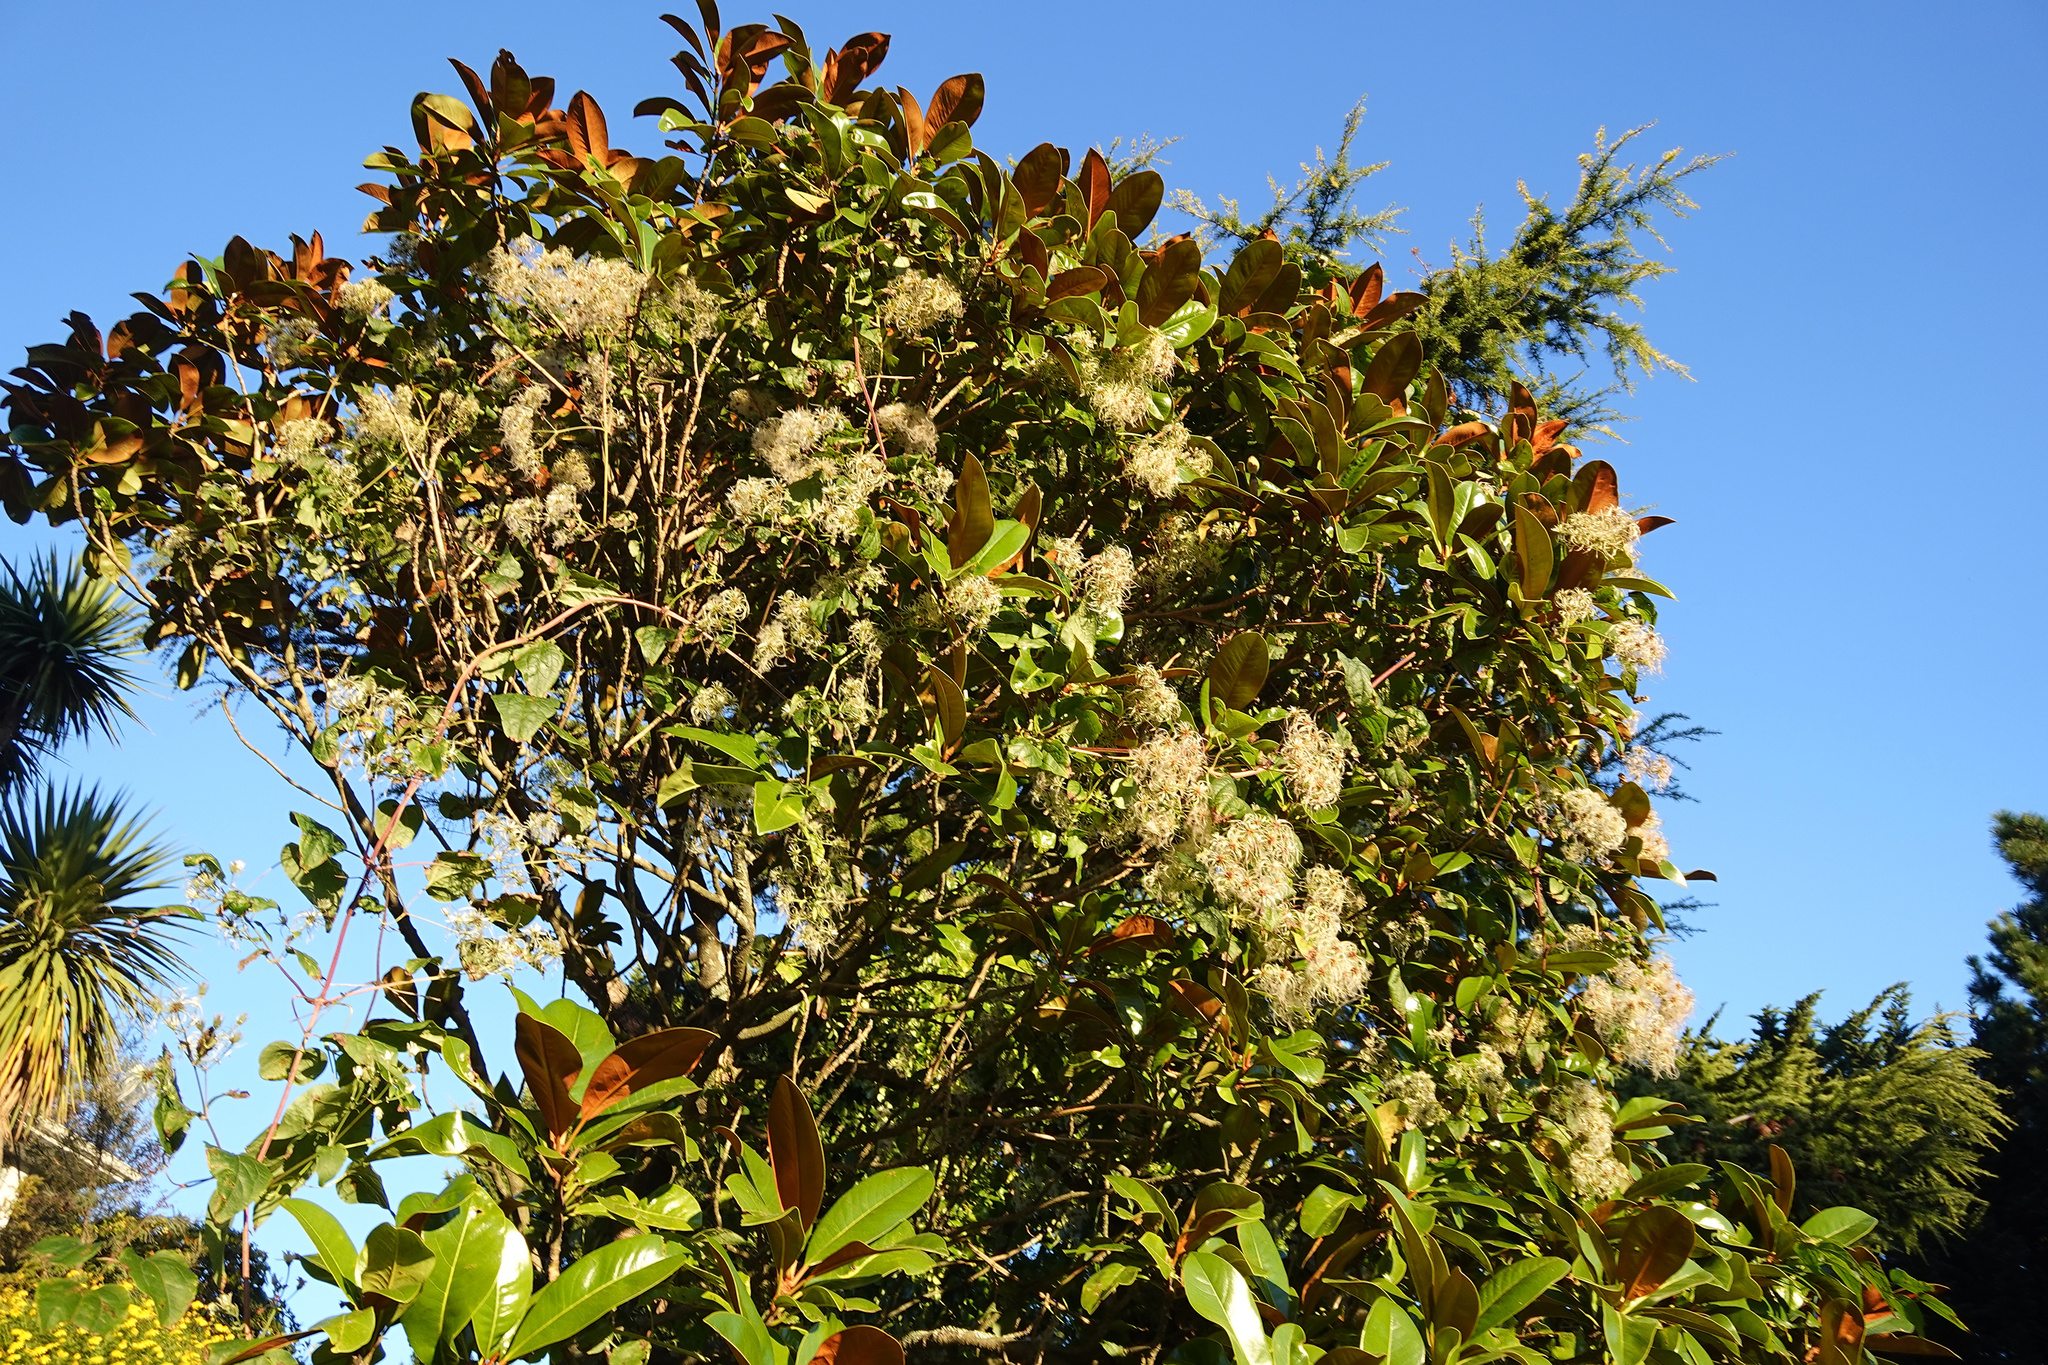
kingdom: Plantae
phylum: Tracheophyta
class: Magnoliopsida
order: Ranunculales
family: Ranunculaceae
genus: Clematis
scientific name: Clematis vitalba
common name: Evergreen clematis
